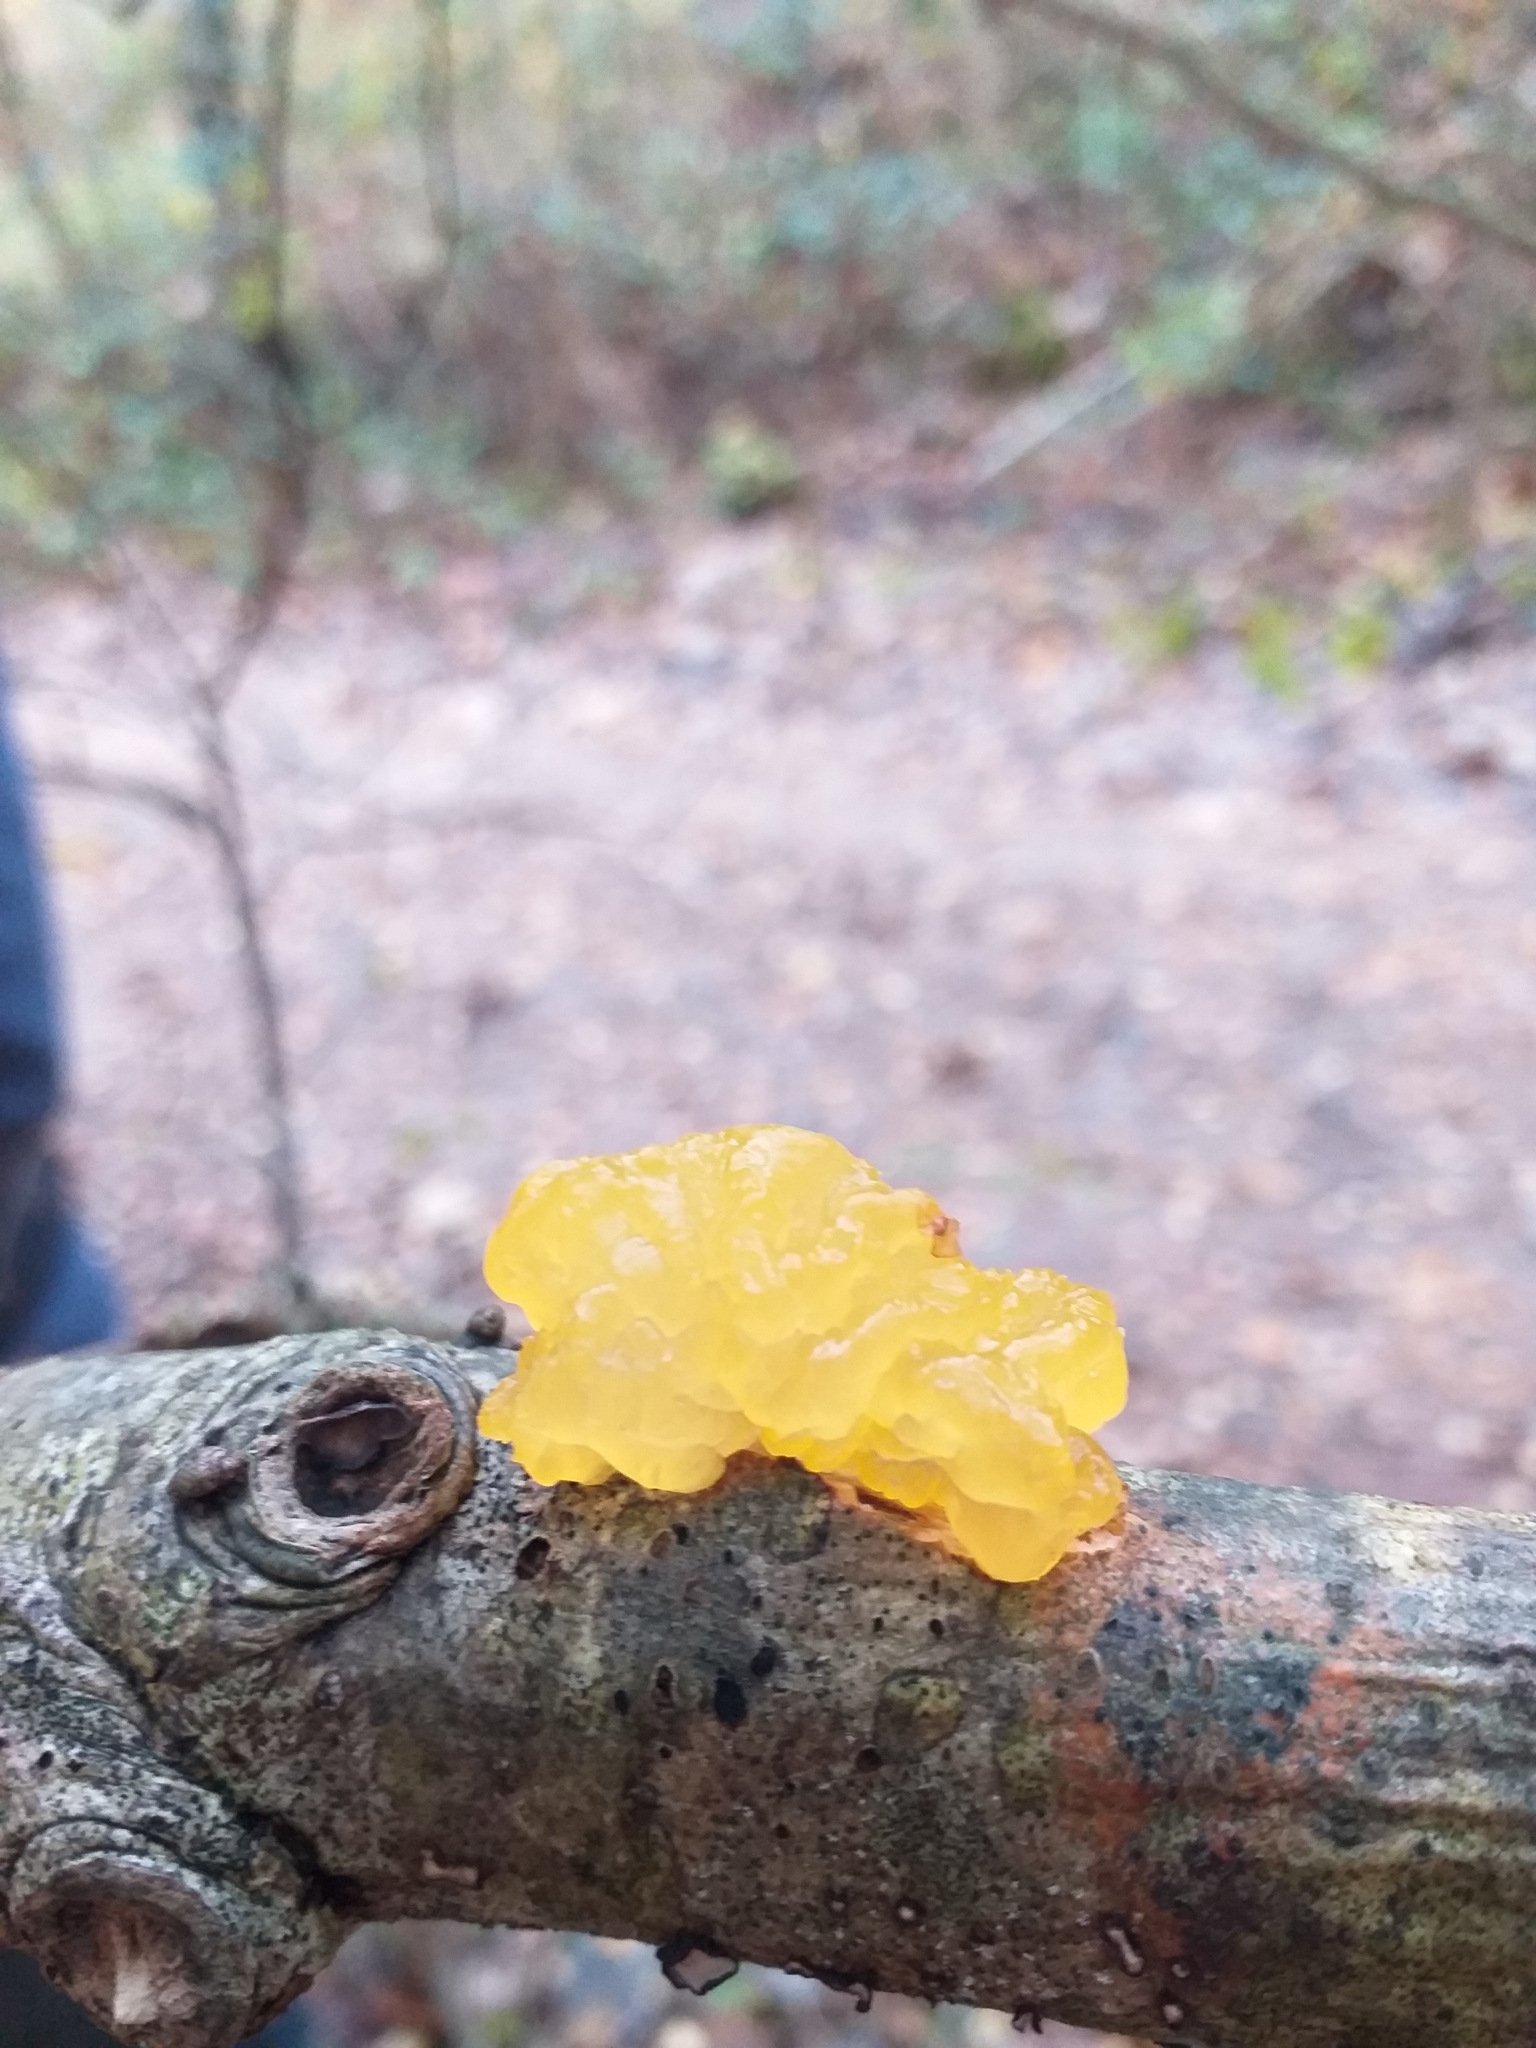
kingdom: Fungi
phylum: Basidiomycota
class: Tremellomycetes
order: Tremellales
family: Tremellaceae
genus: Tremella
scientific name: Tremella mesenterica
